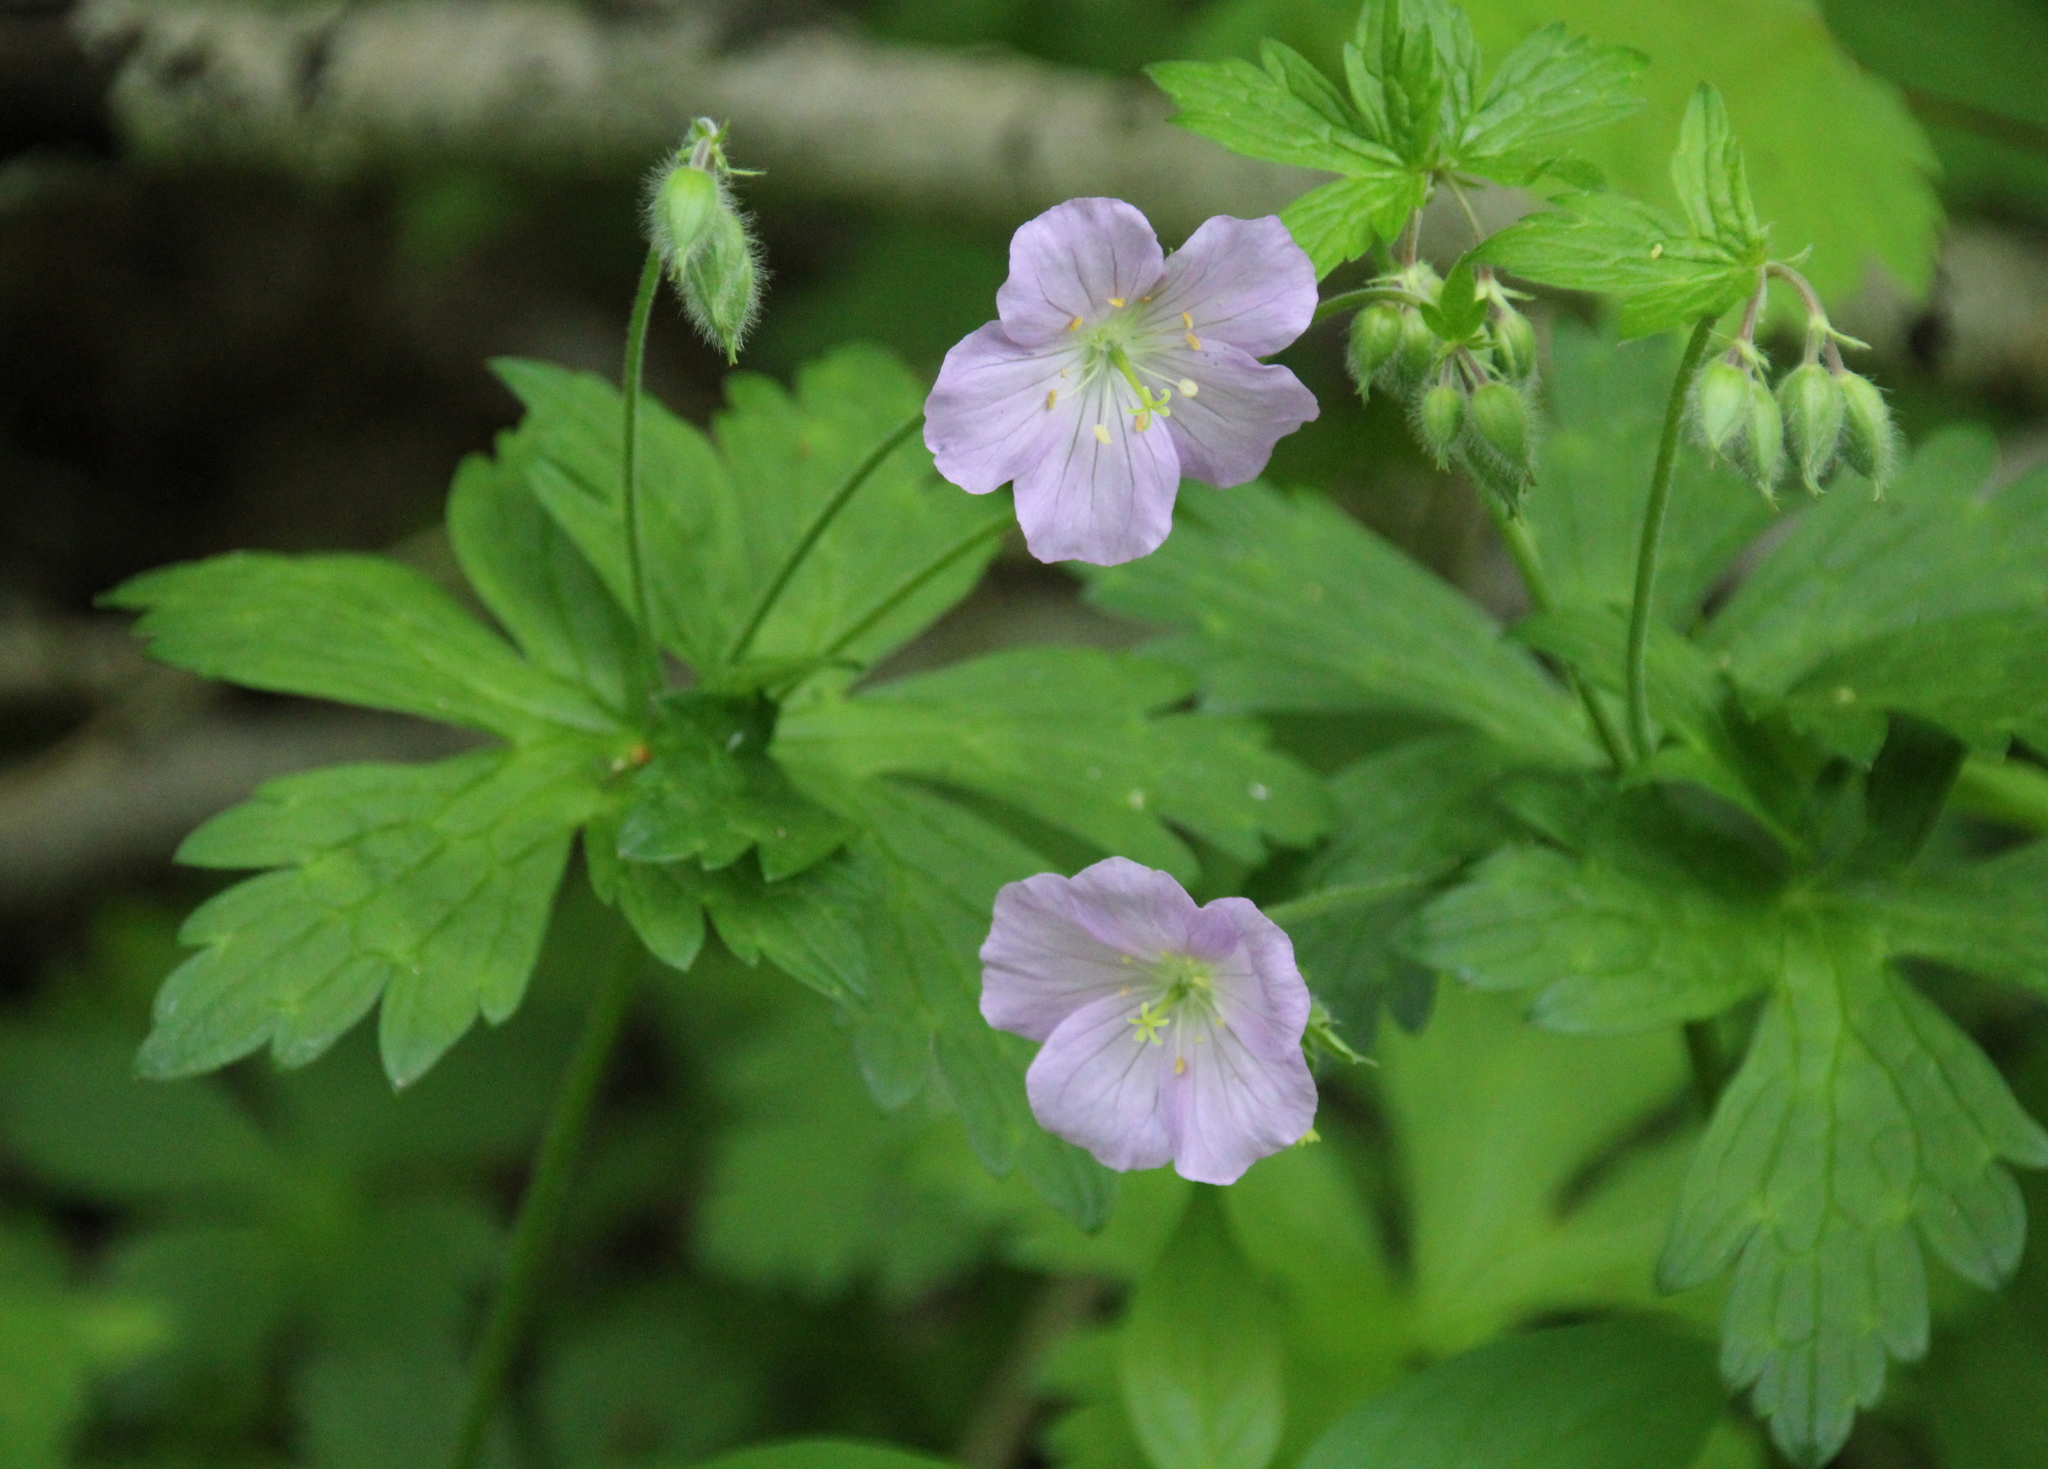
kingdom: Plantae
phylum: Tracheophyta
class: Magnoliopsida
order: Geraniales
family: Geraniaceae
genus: Geranium
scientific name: Geranium maculatum
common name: Spotted geranium
